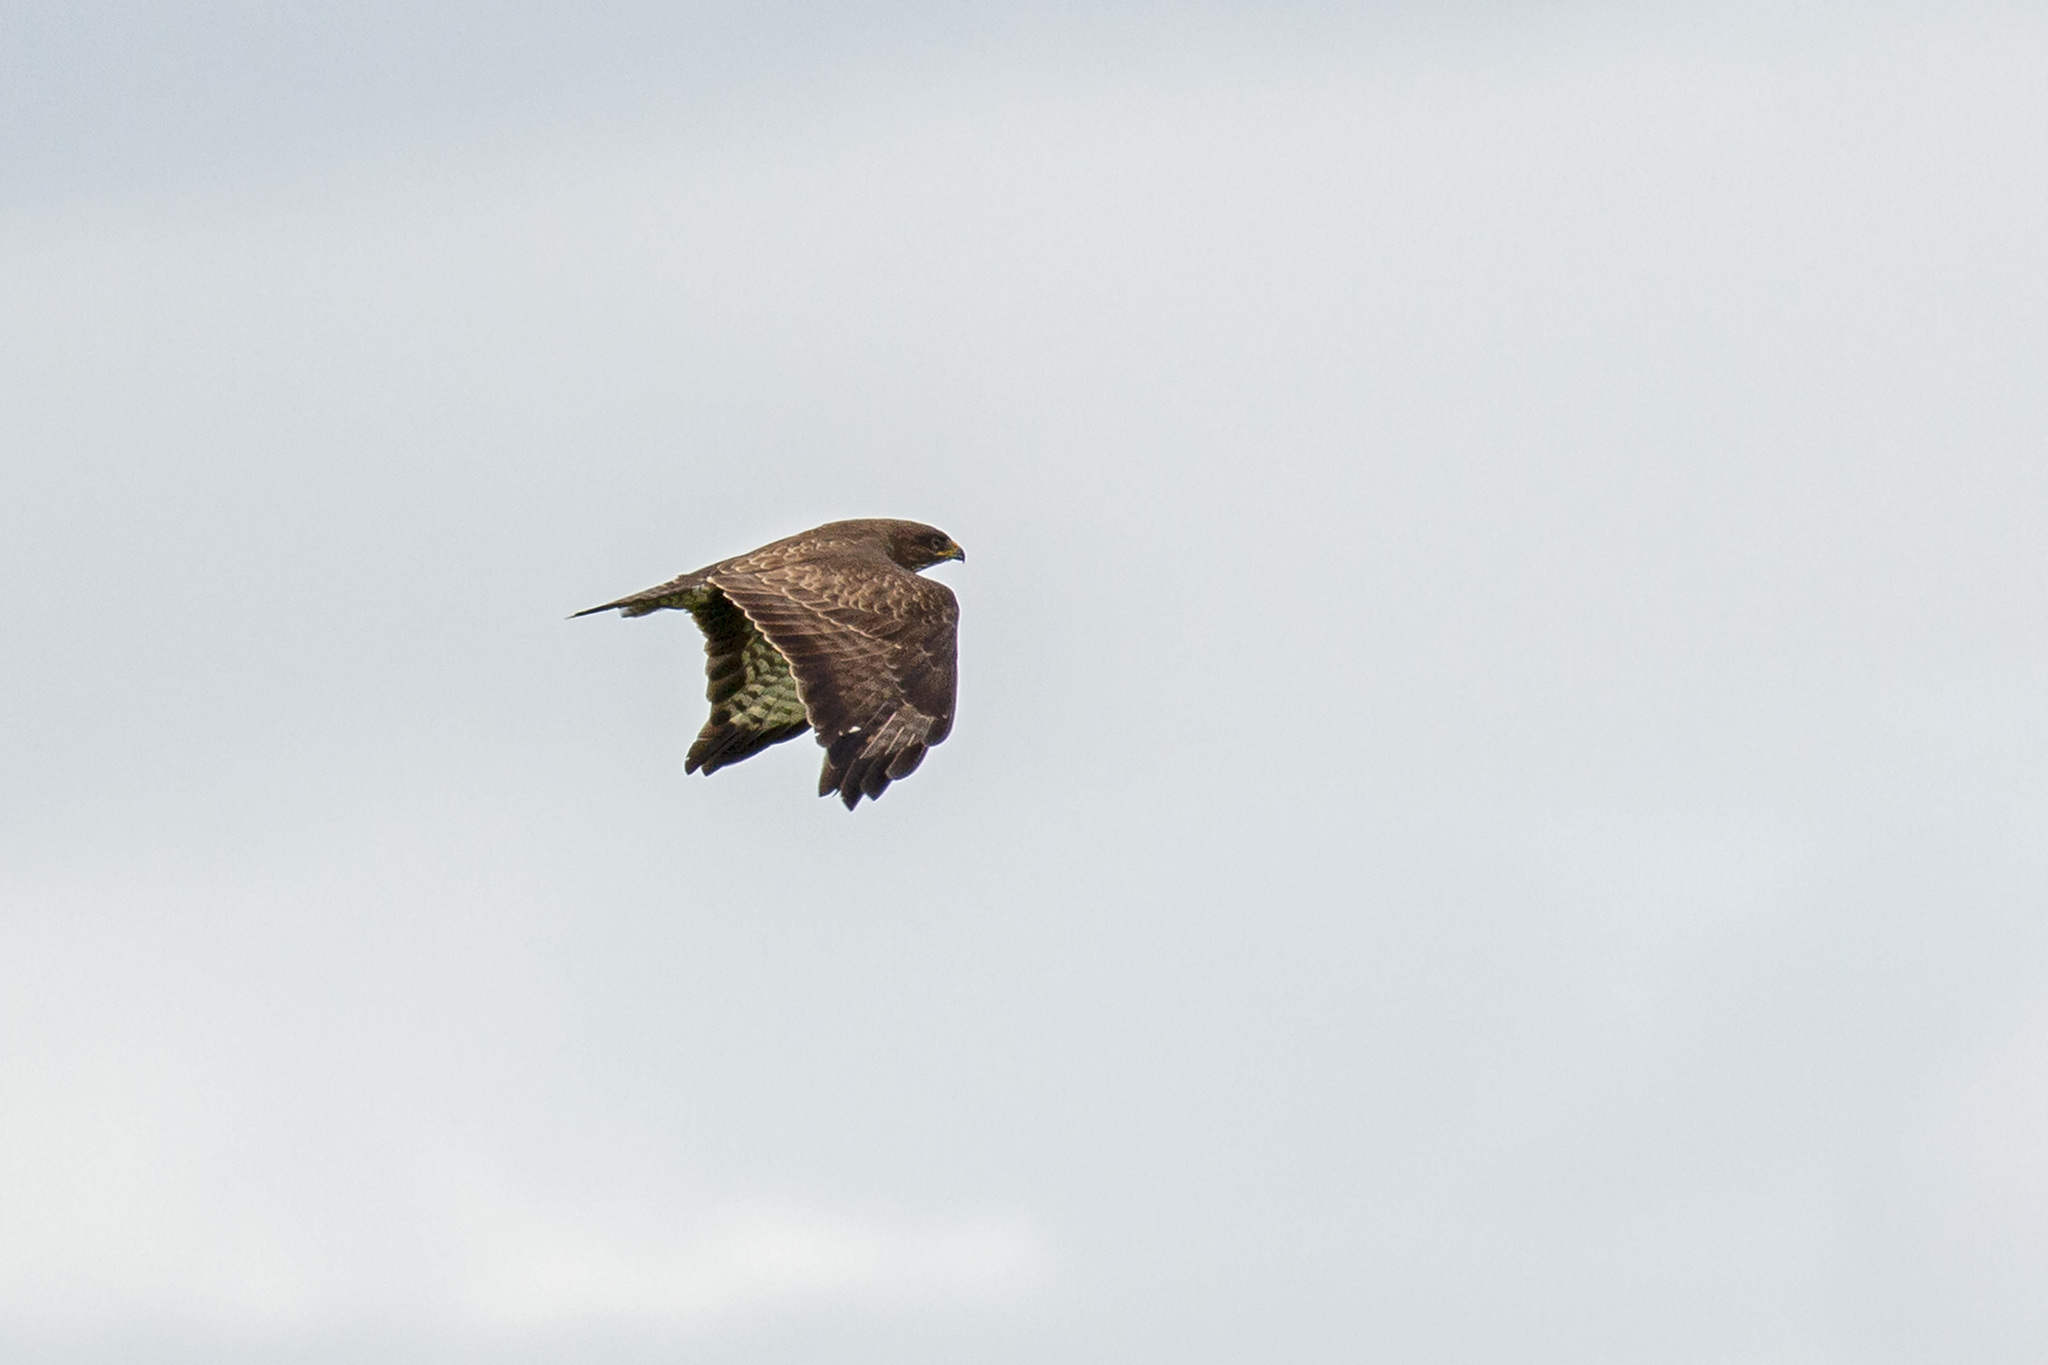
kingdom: Animalia
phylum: Chordata
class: Aves
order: Accipitriformes
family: Accipitridae
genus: Buteo
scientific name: Buteo buteo
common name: Common buzzard
